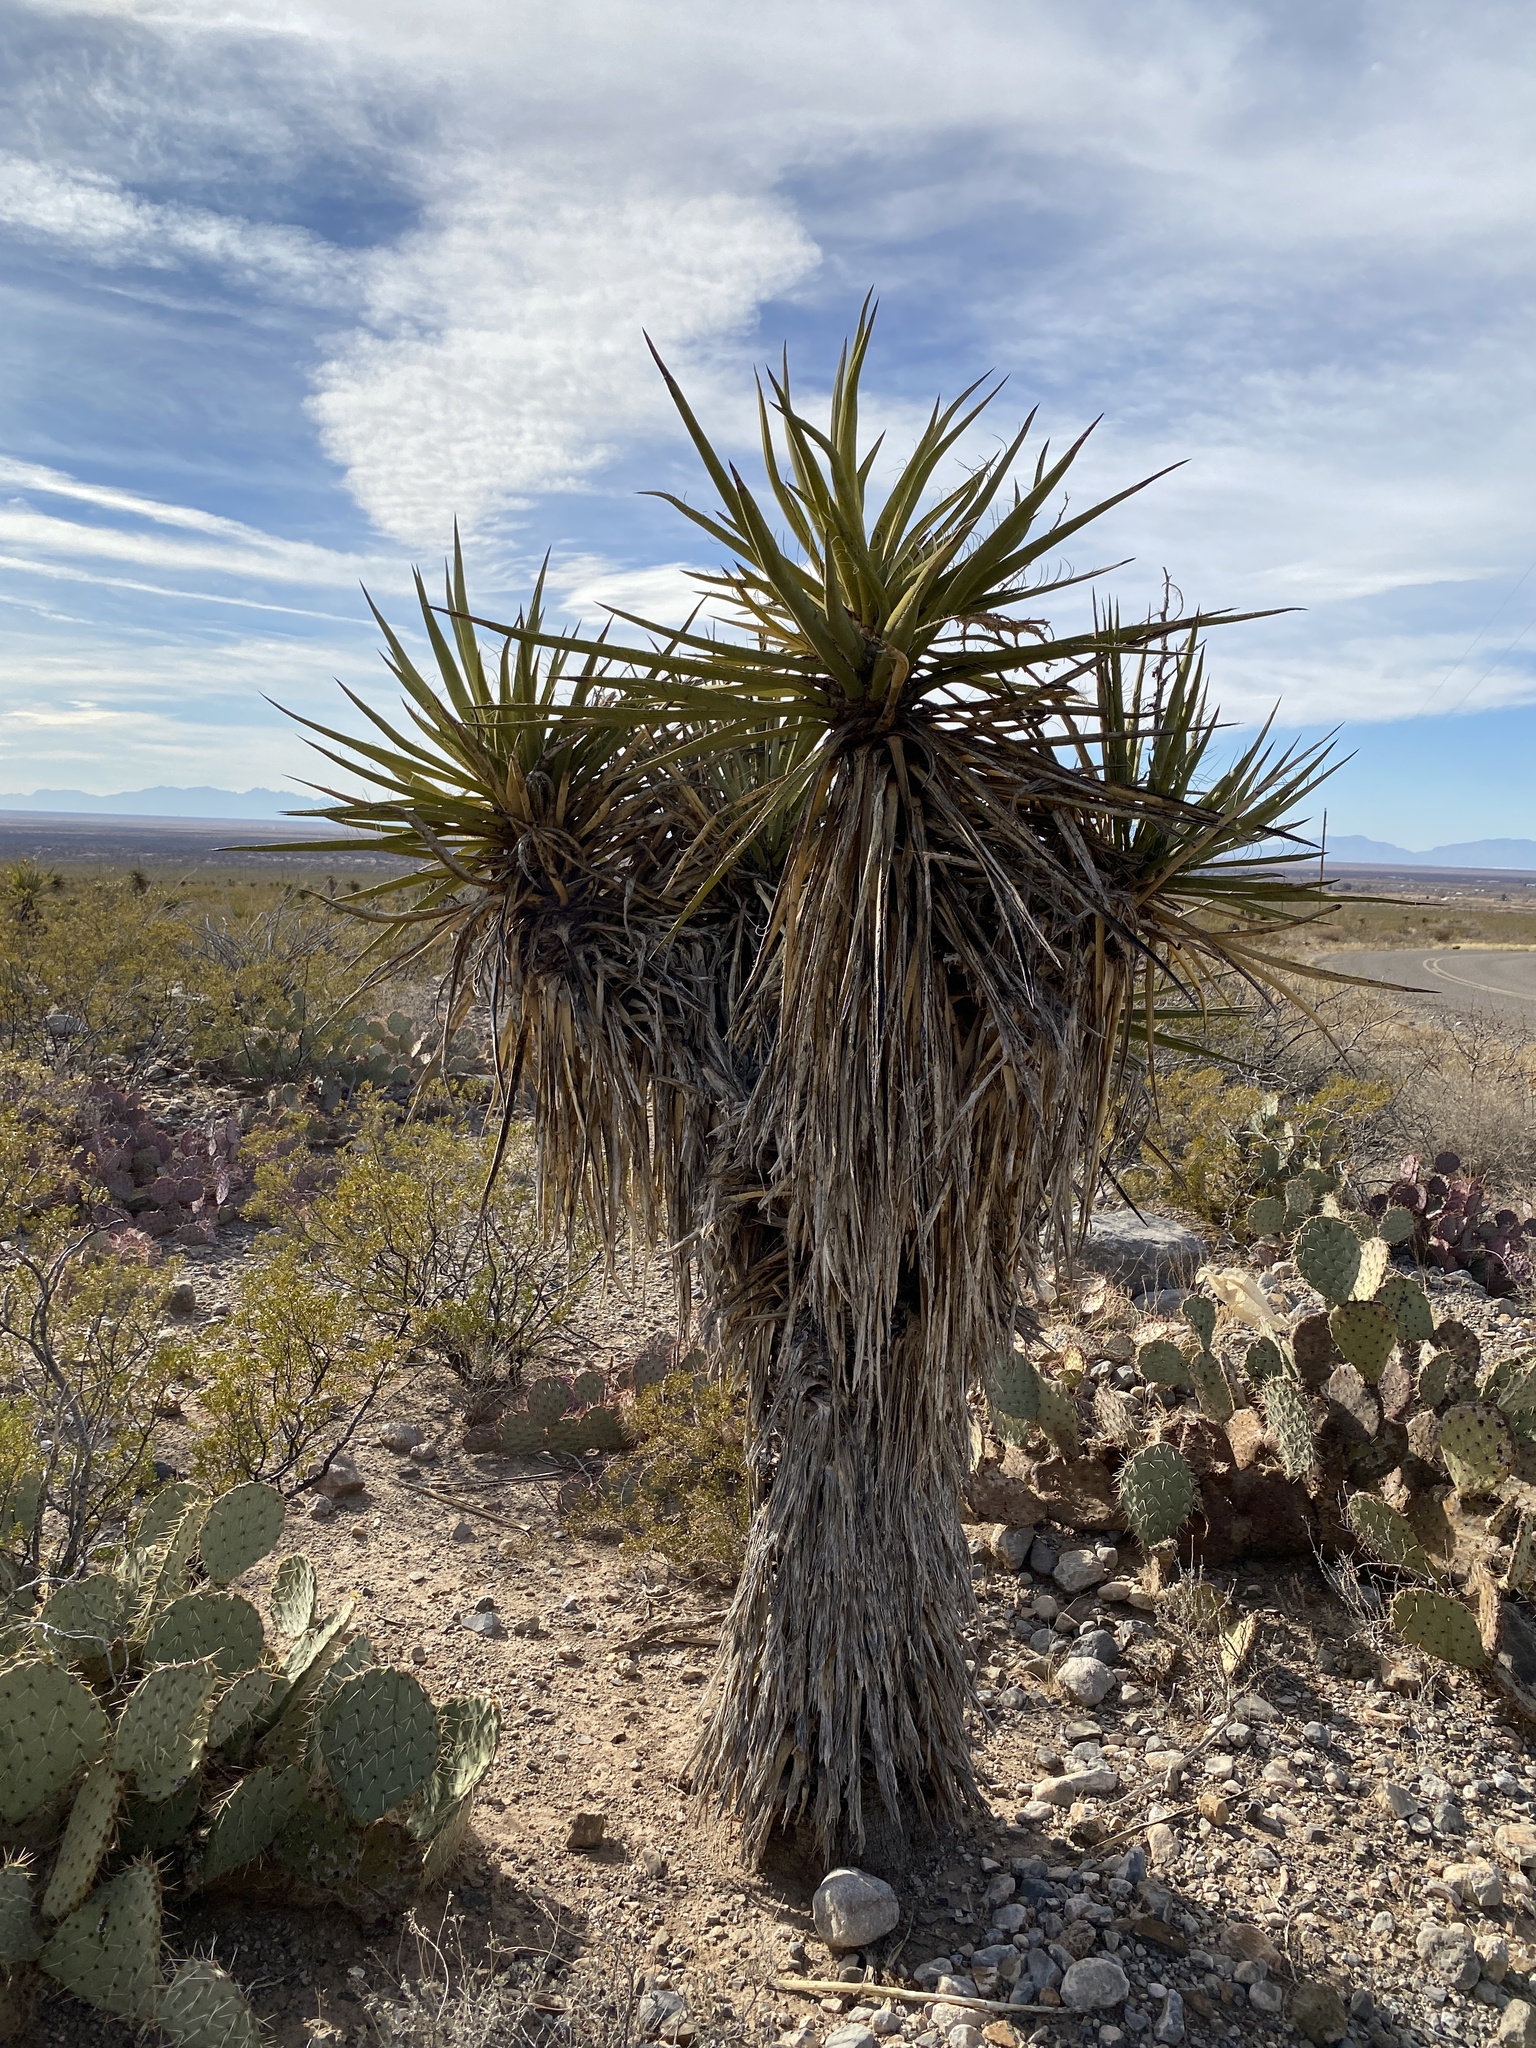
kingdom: Plantae
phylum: Tracheophyta
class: Liliopsida
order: Asparagales
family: Asparagaceae
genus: Yucca
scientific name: Yucca treculiana
